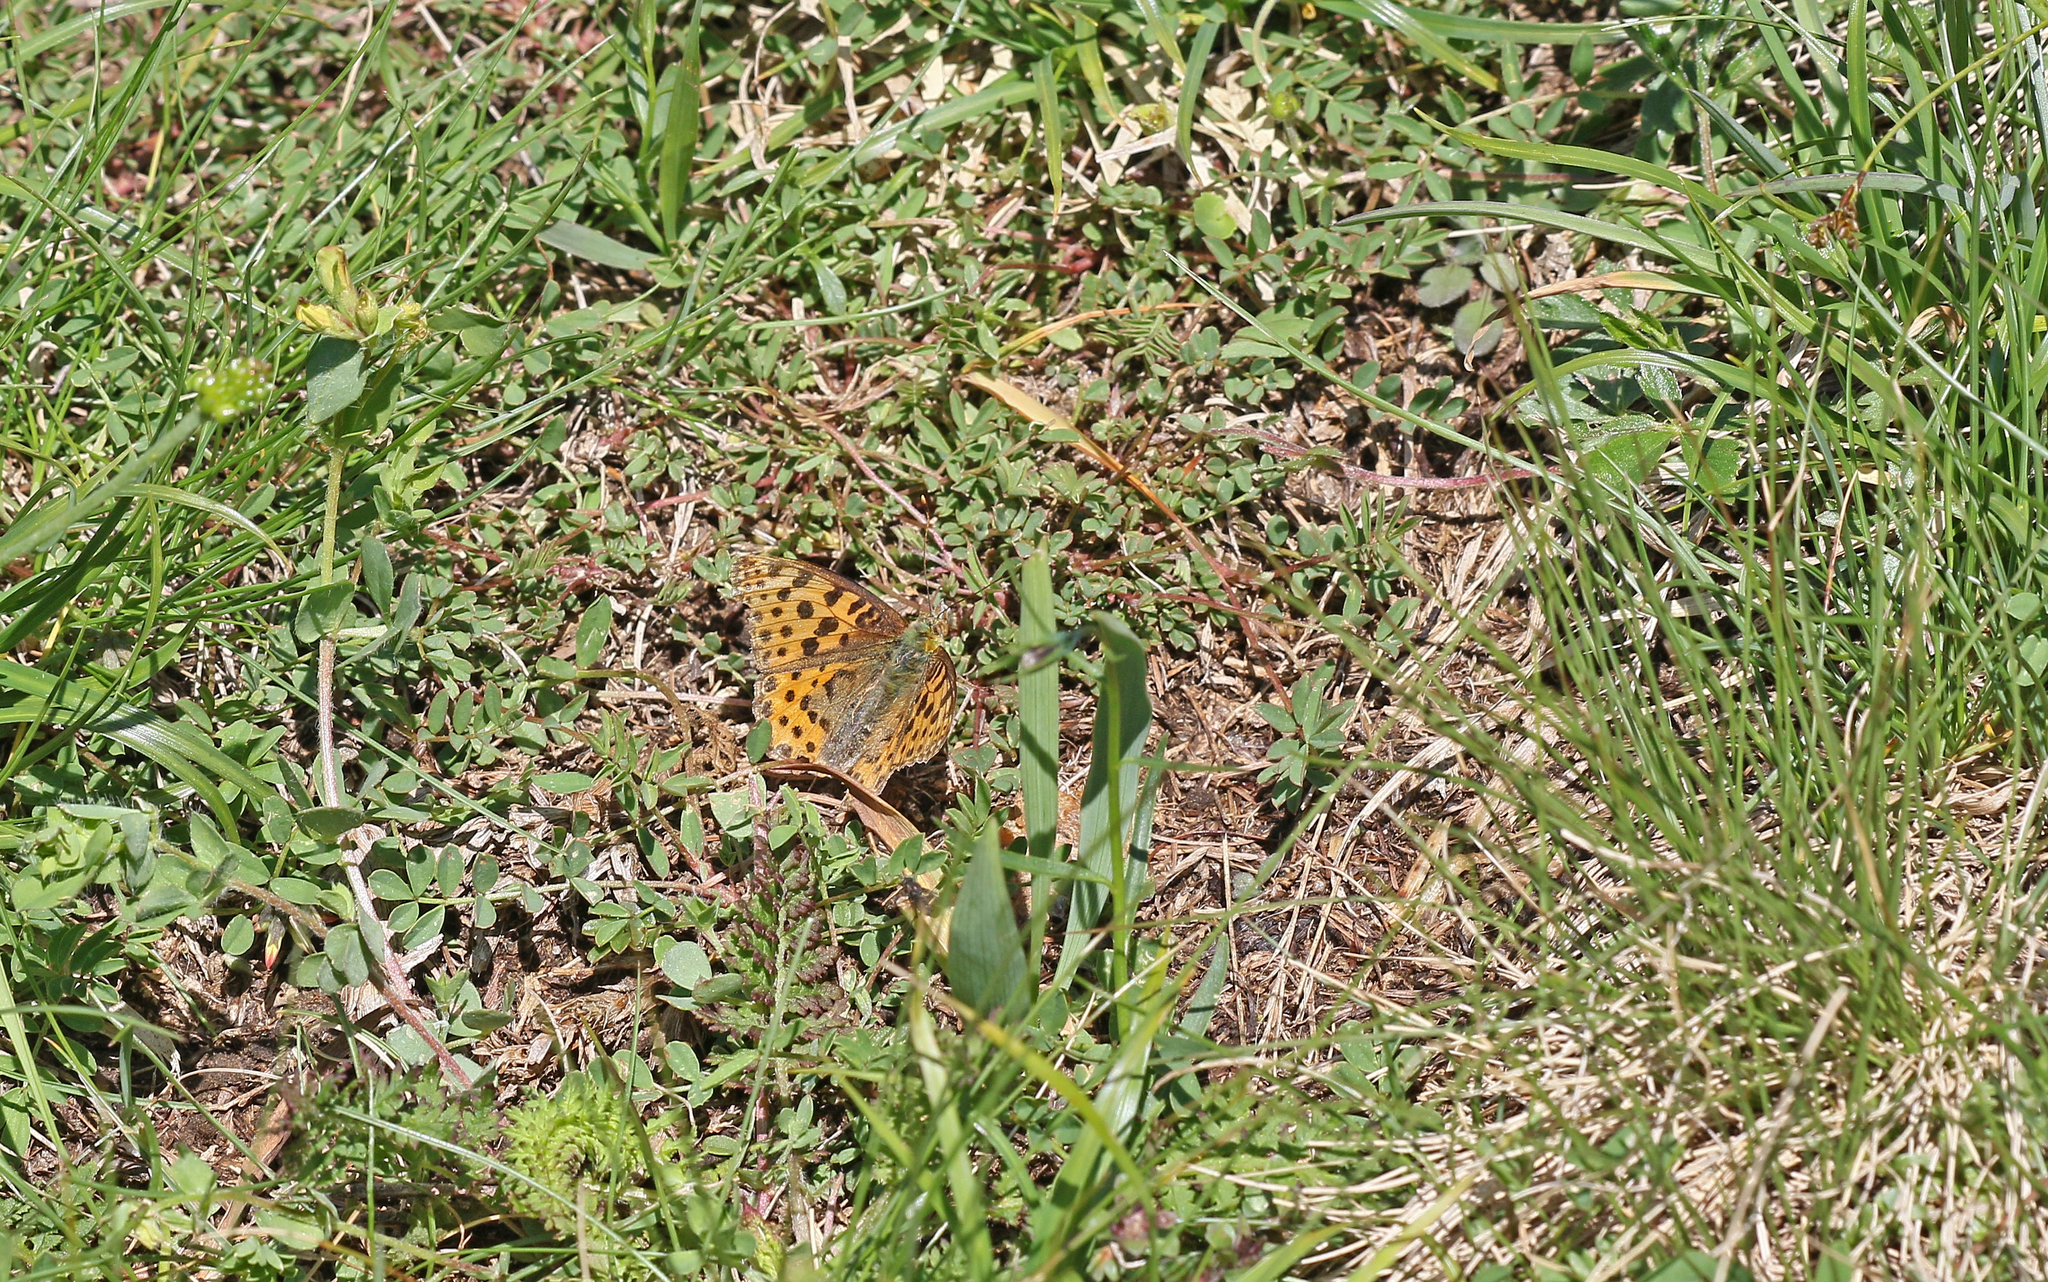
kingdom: Animalia
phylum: Arthropoda
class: Insecta
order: Lepidoptera
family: Nymphalidae
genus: Issoria
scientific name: Issoria lathonia
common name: Queen of spain fritillary
